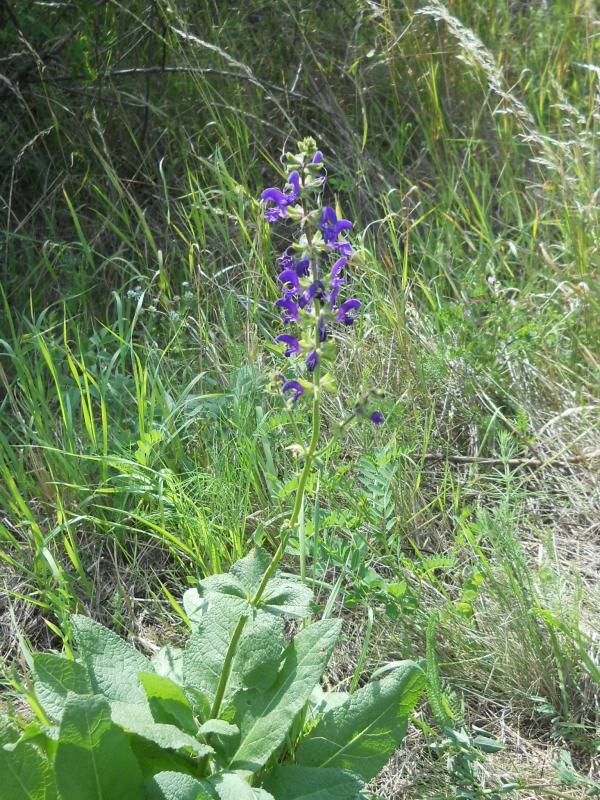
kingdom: Plantae
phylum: Tracheophyta
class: Magnoliopsida
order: Lamiales
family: Lamiaceae
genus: Salvia
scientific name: Salvia pratensis
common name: Meadow sage
